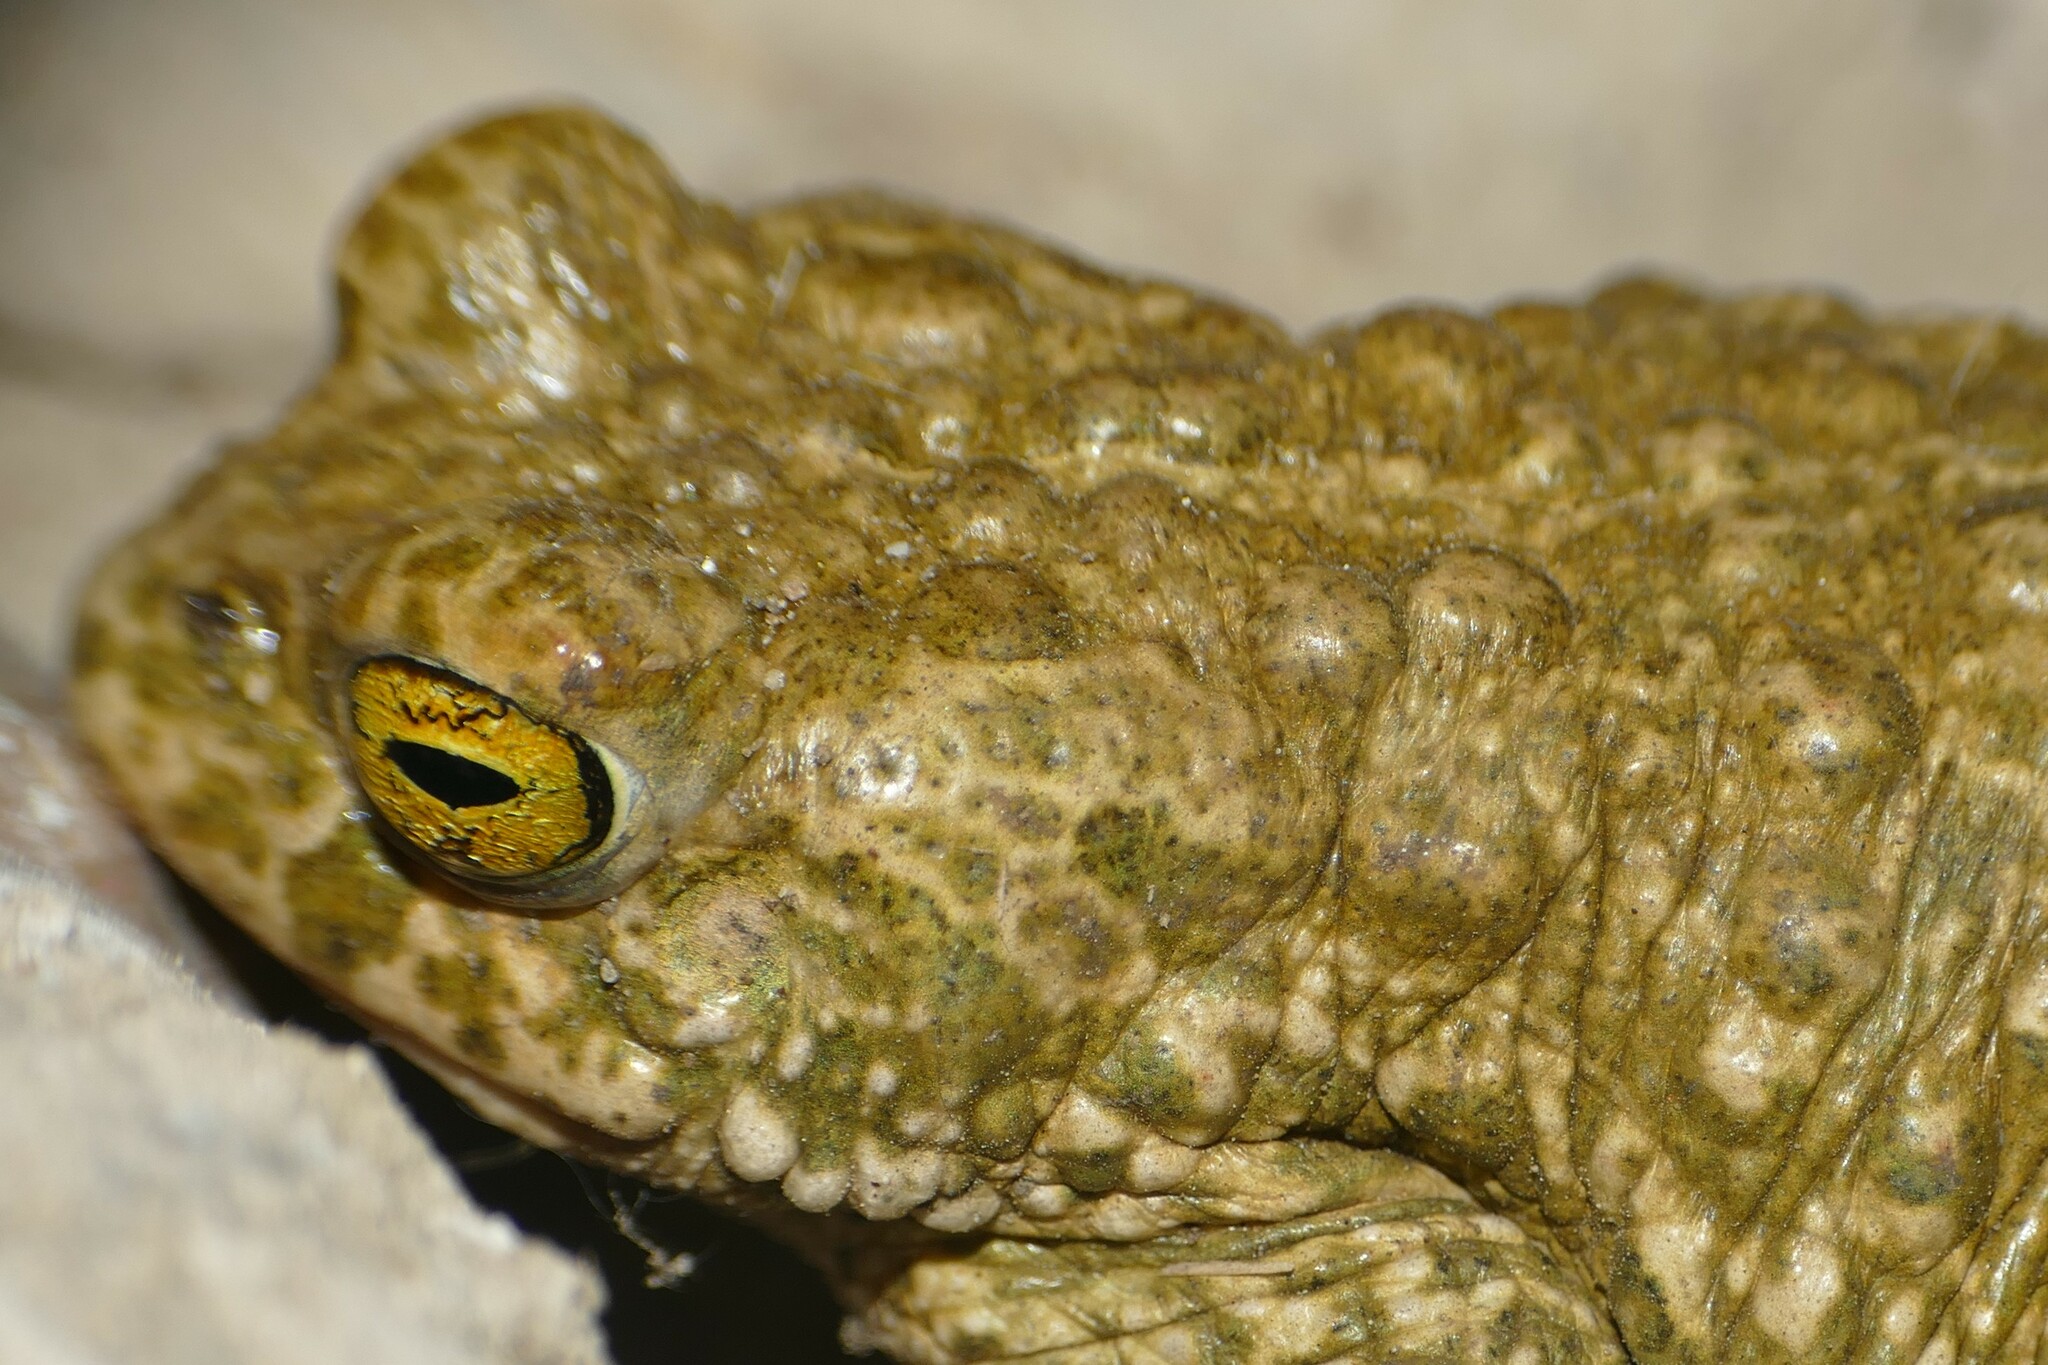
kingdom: Animalia
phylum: Chordata
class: Amphibia
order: Anura
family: Bufonidae
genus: Epidalea
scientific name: Epidalea calamita
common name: Natterjack toad
